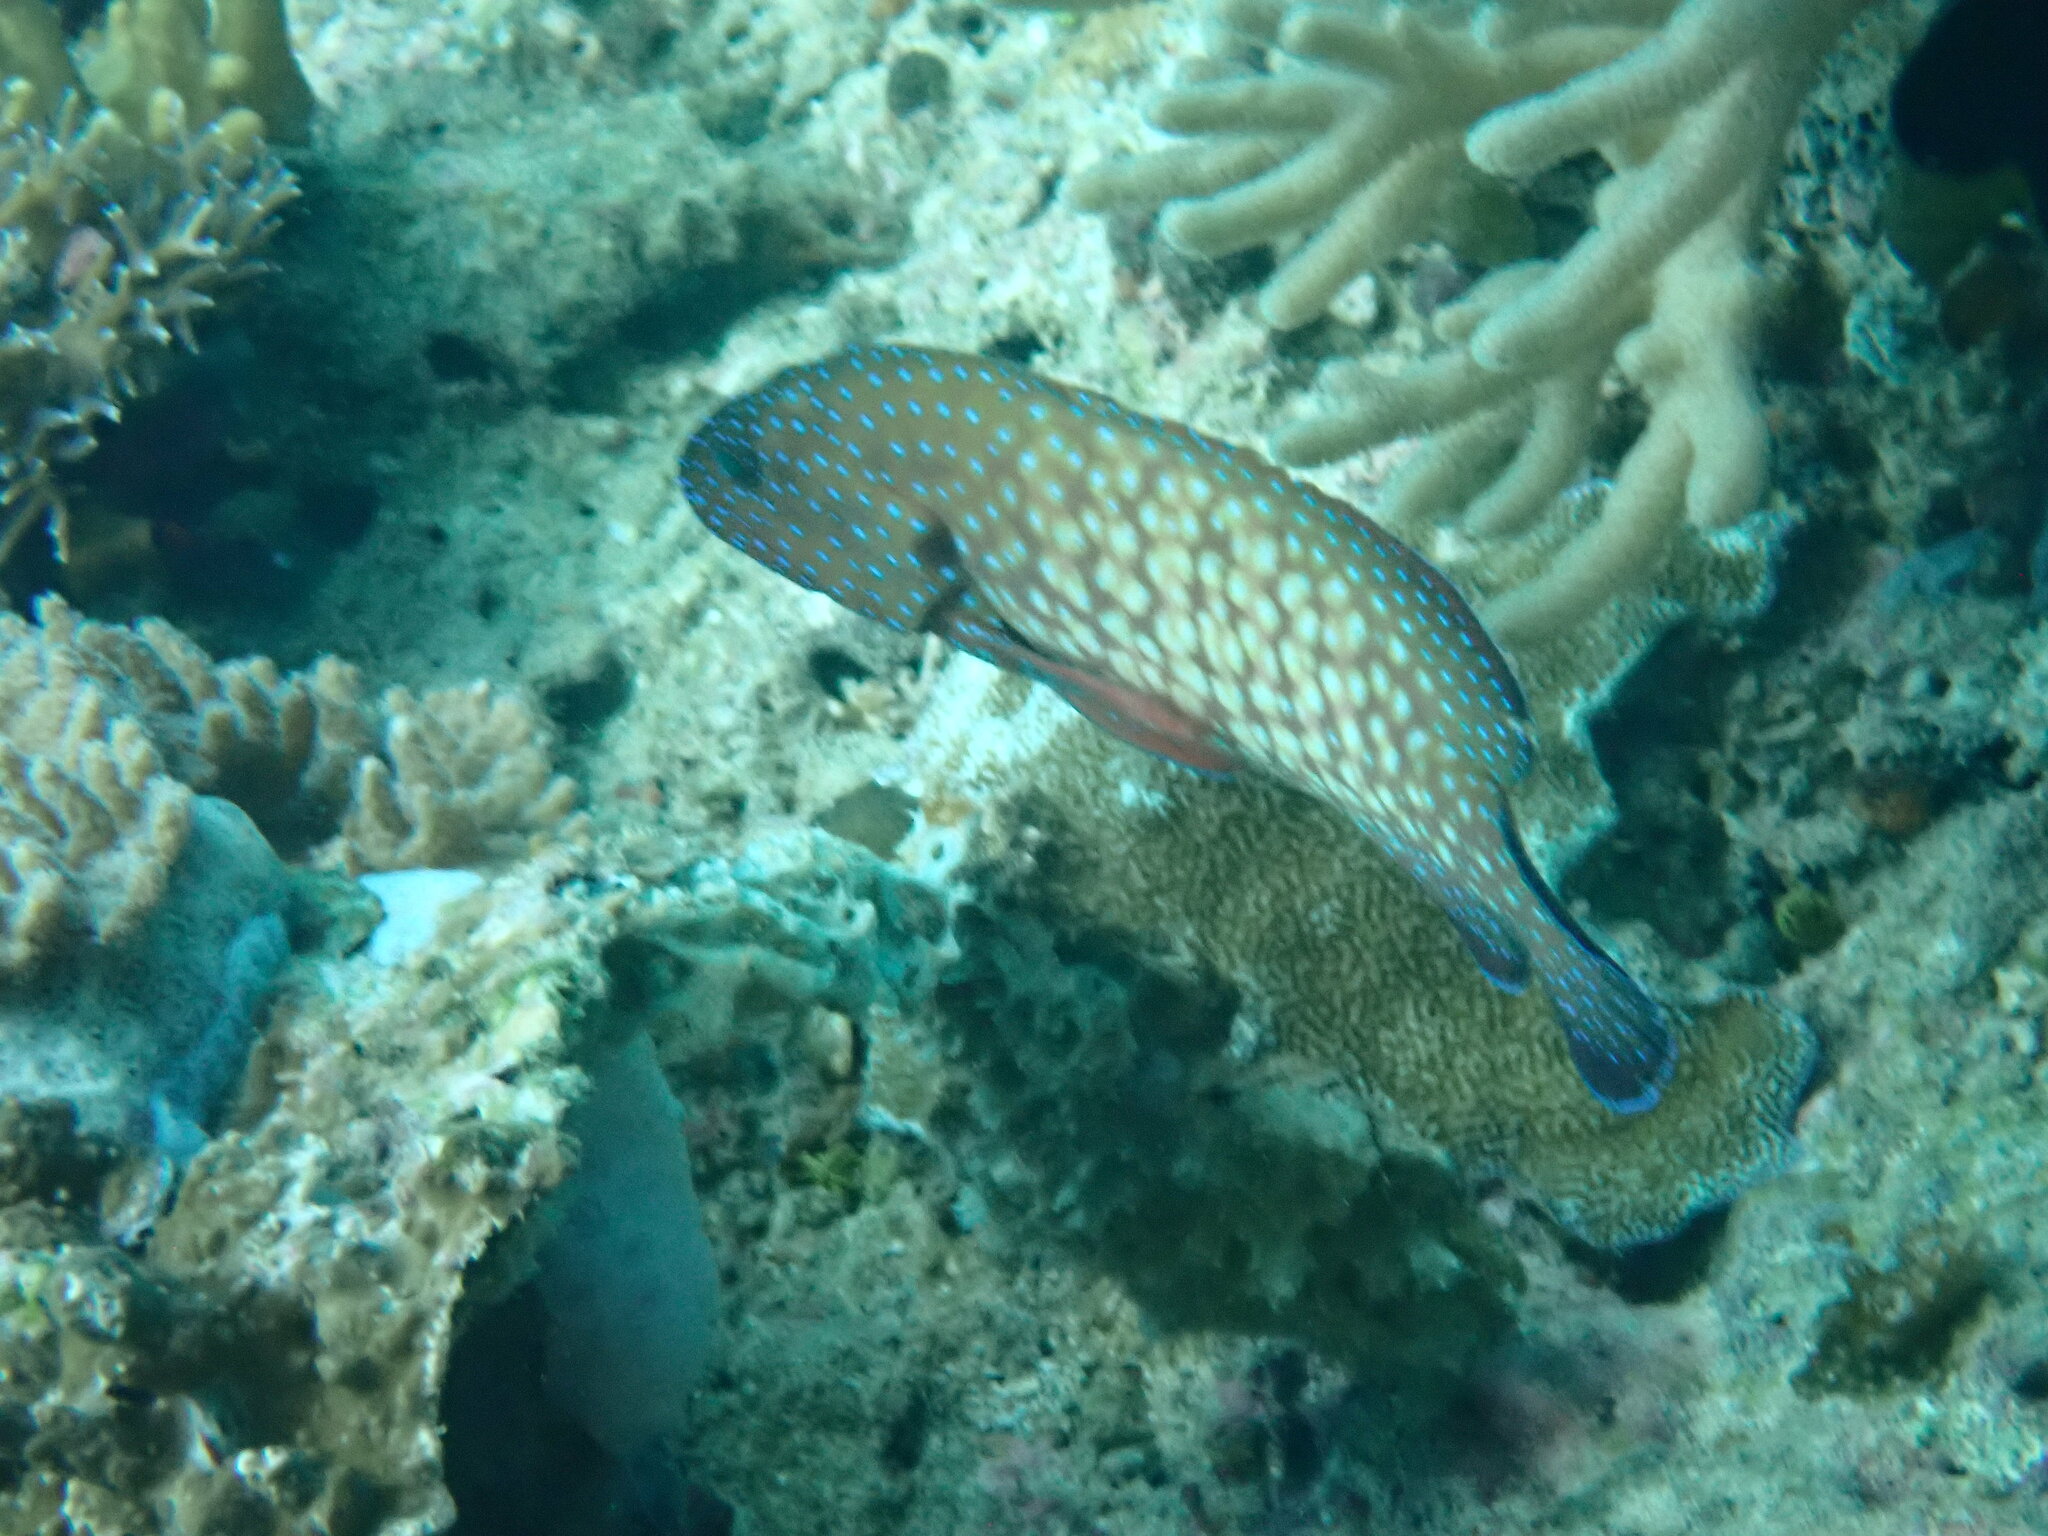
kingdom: Animalia
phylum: Chordata
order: Perciformes
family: Serranidae
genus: Cephalopholis
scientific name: Cephalopholis cyanostigma
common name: Bluespotted hind
